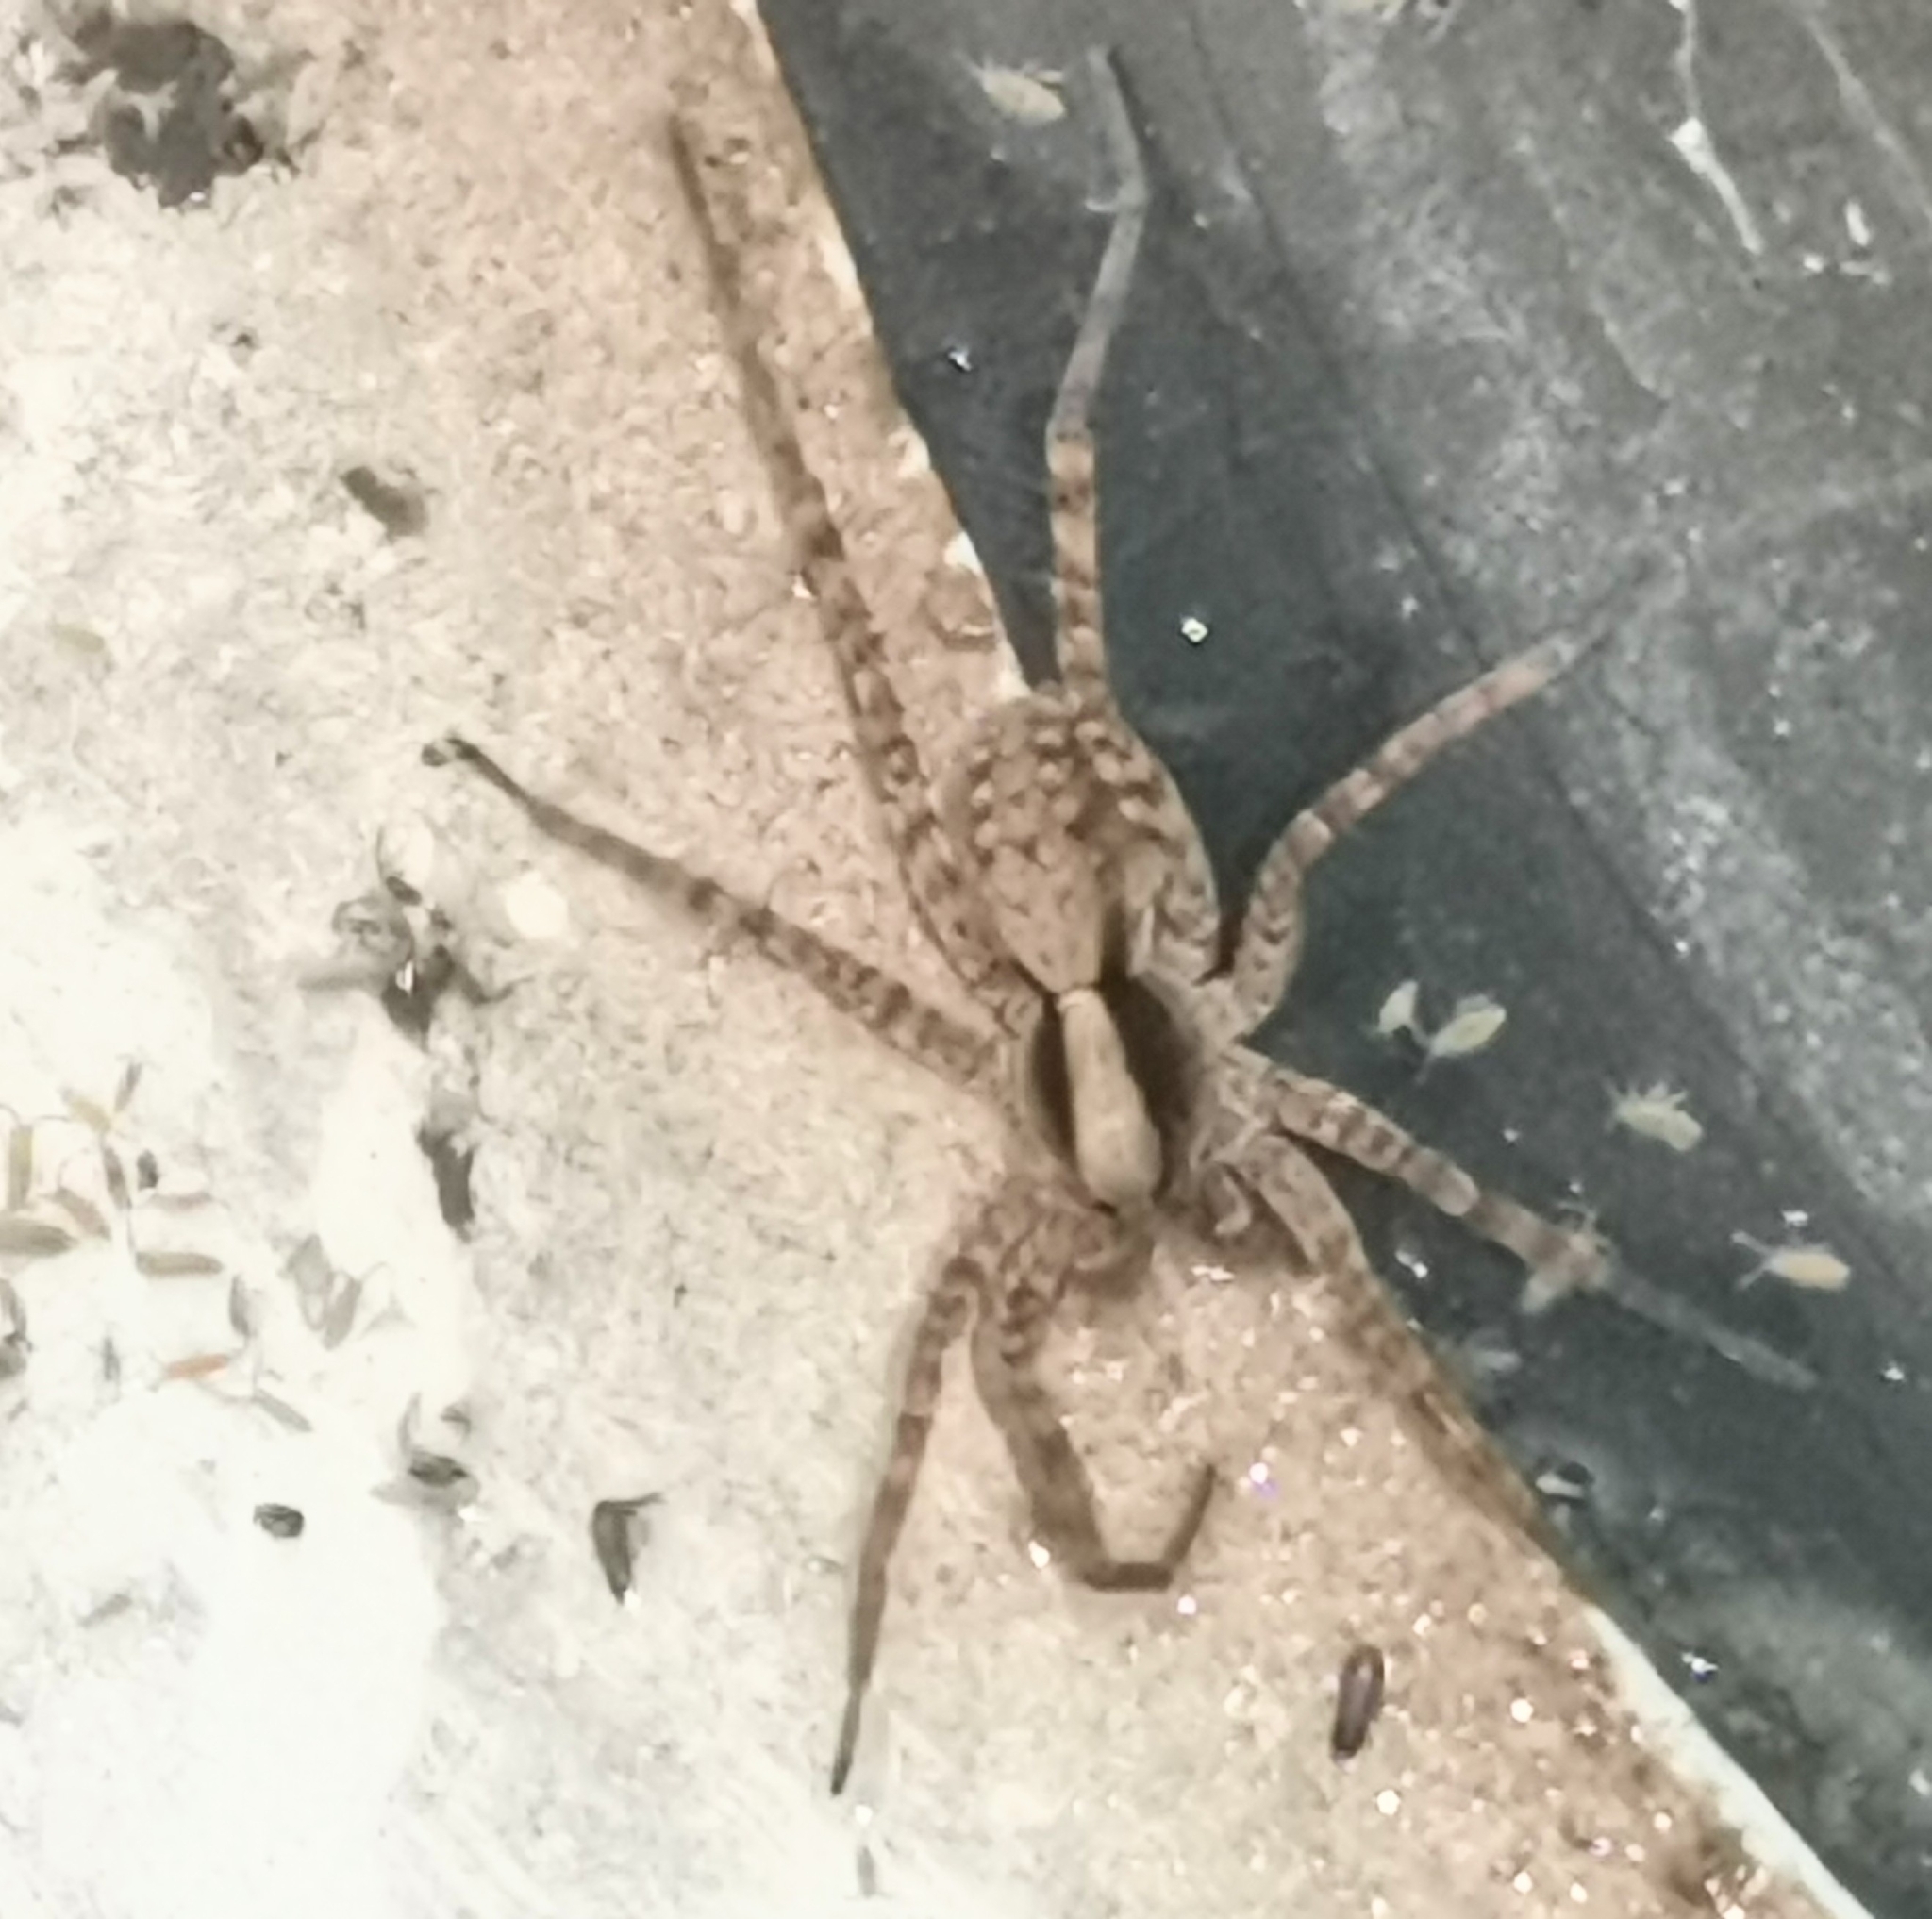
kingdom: Animalia
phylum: Arthropoda
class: Arachnida
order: Araneae
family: Lycosidae
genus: Pardosa
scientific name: Pardosa
